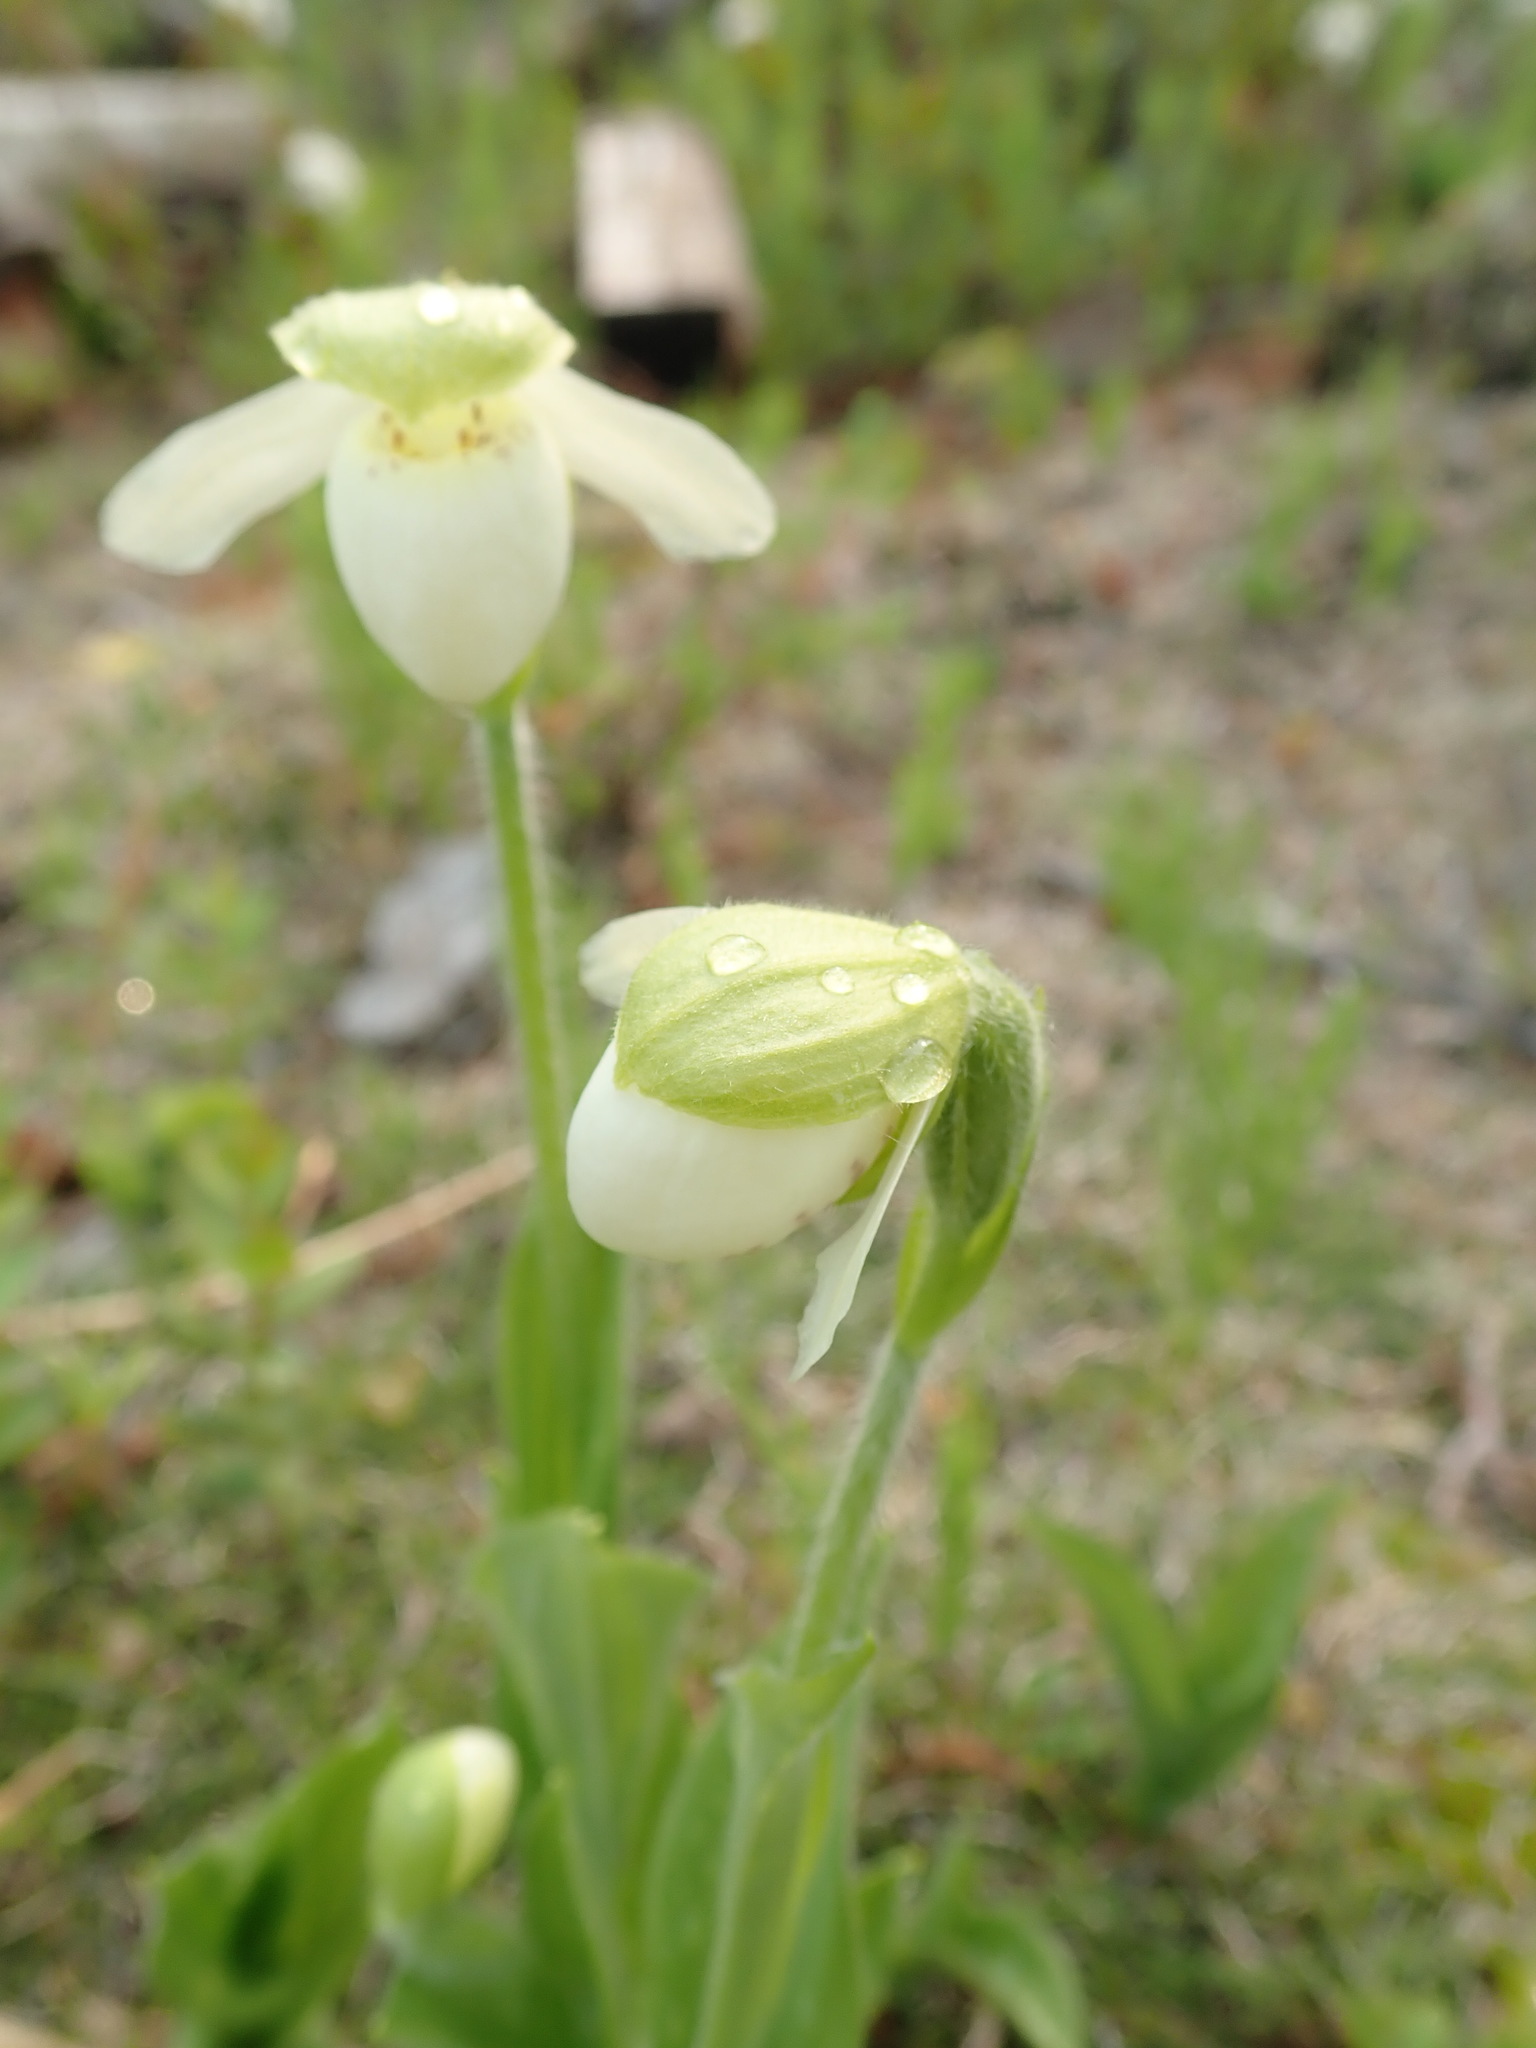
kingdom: Plantae
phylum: Tracheophyta
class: Liliopsida
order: Asparagales
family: Orchidaceae
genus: Cypripedium
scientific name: Cypripedium passerinum
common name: Sparrow's-egg lady's-slipper
